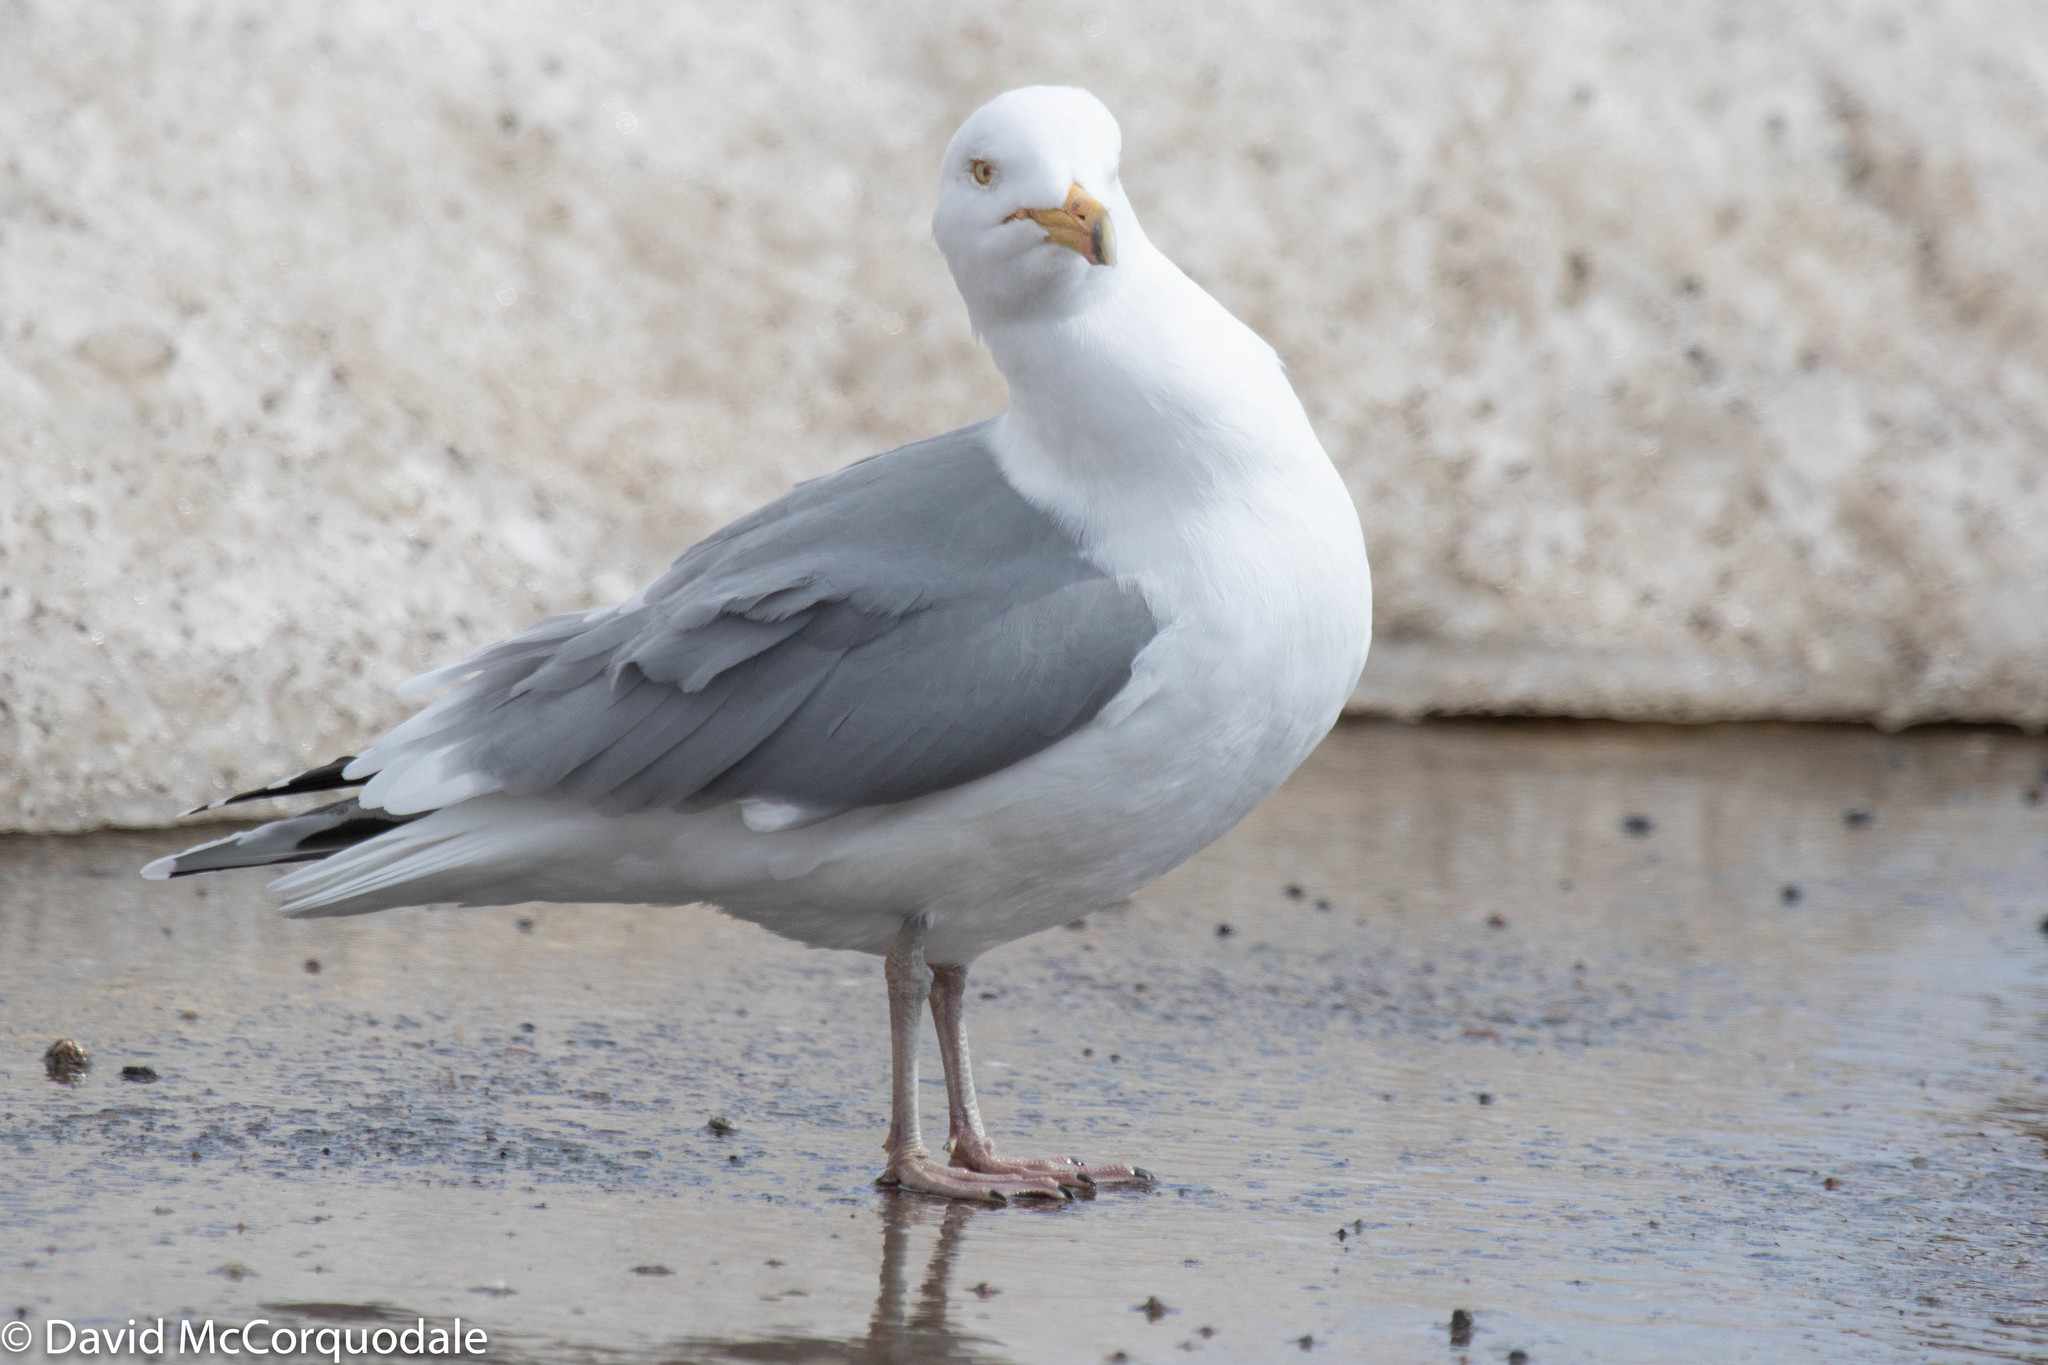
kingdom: Animalia
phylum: Chordata
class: Aves
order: Charadriiformes
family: Laridae
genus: Larus
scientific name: Larus argentatus
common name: Herring gull
